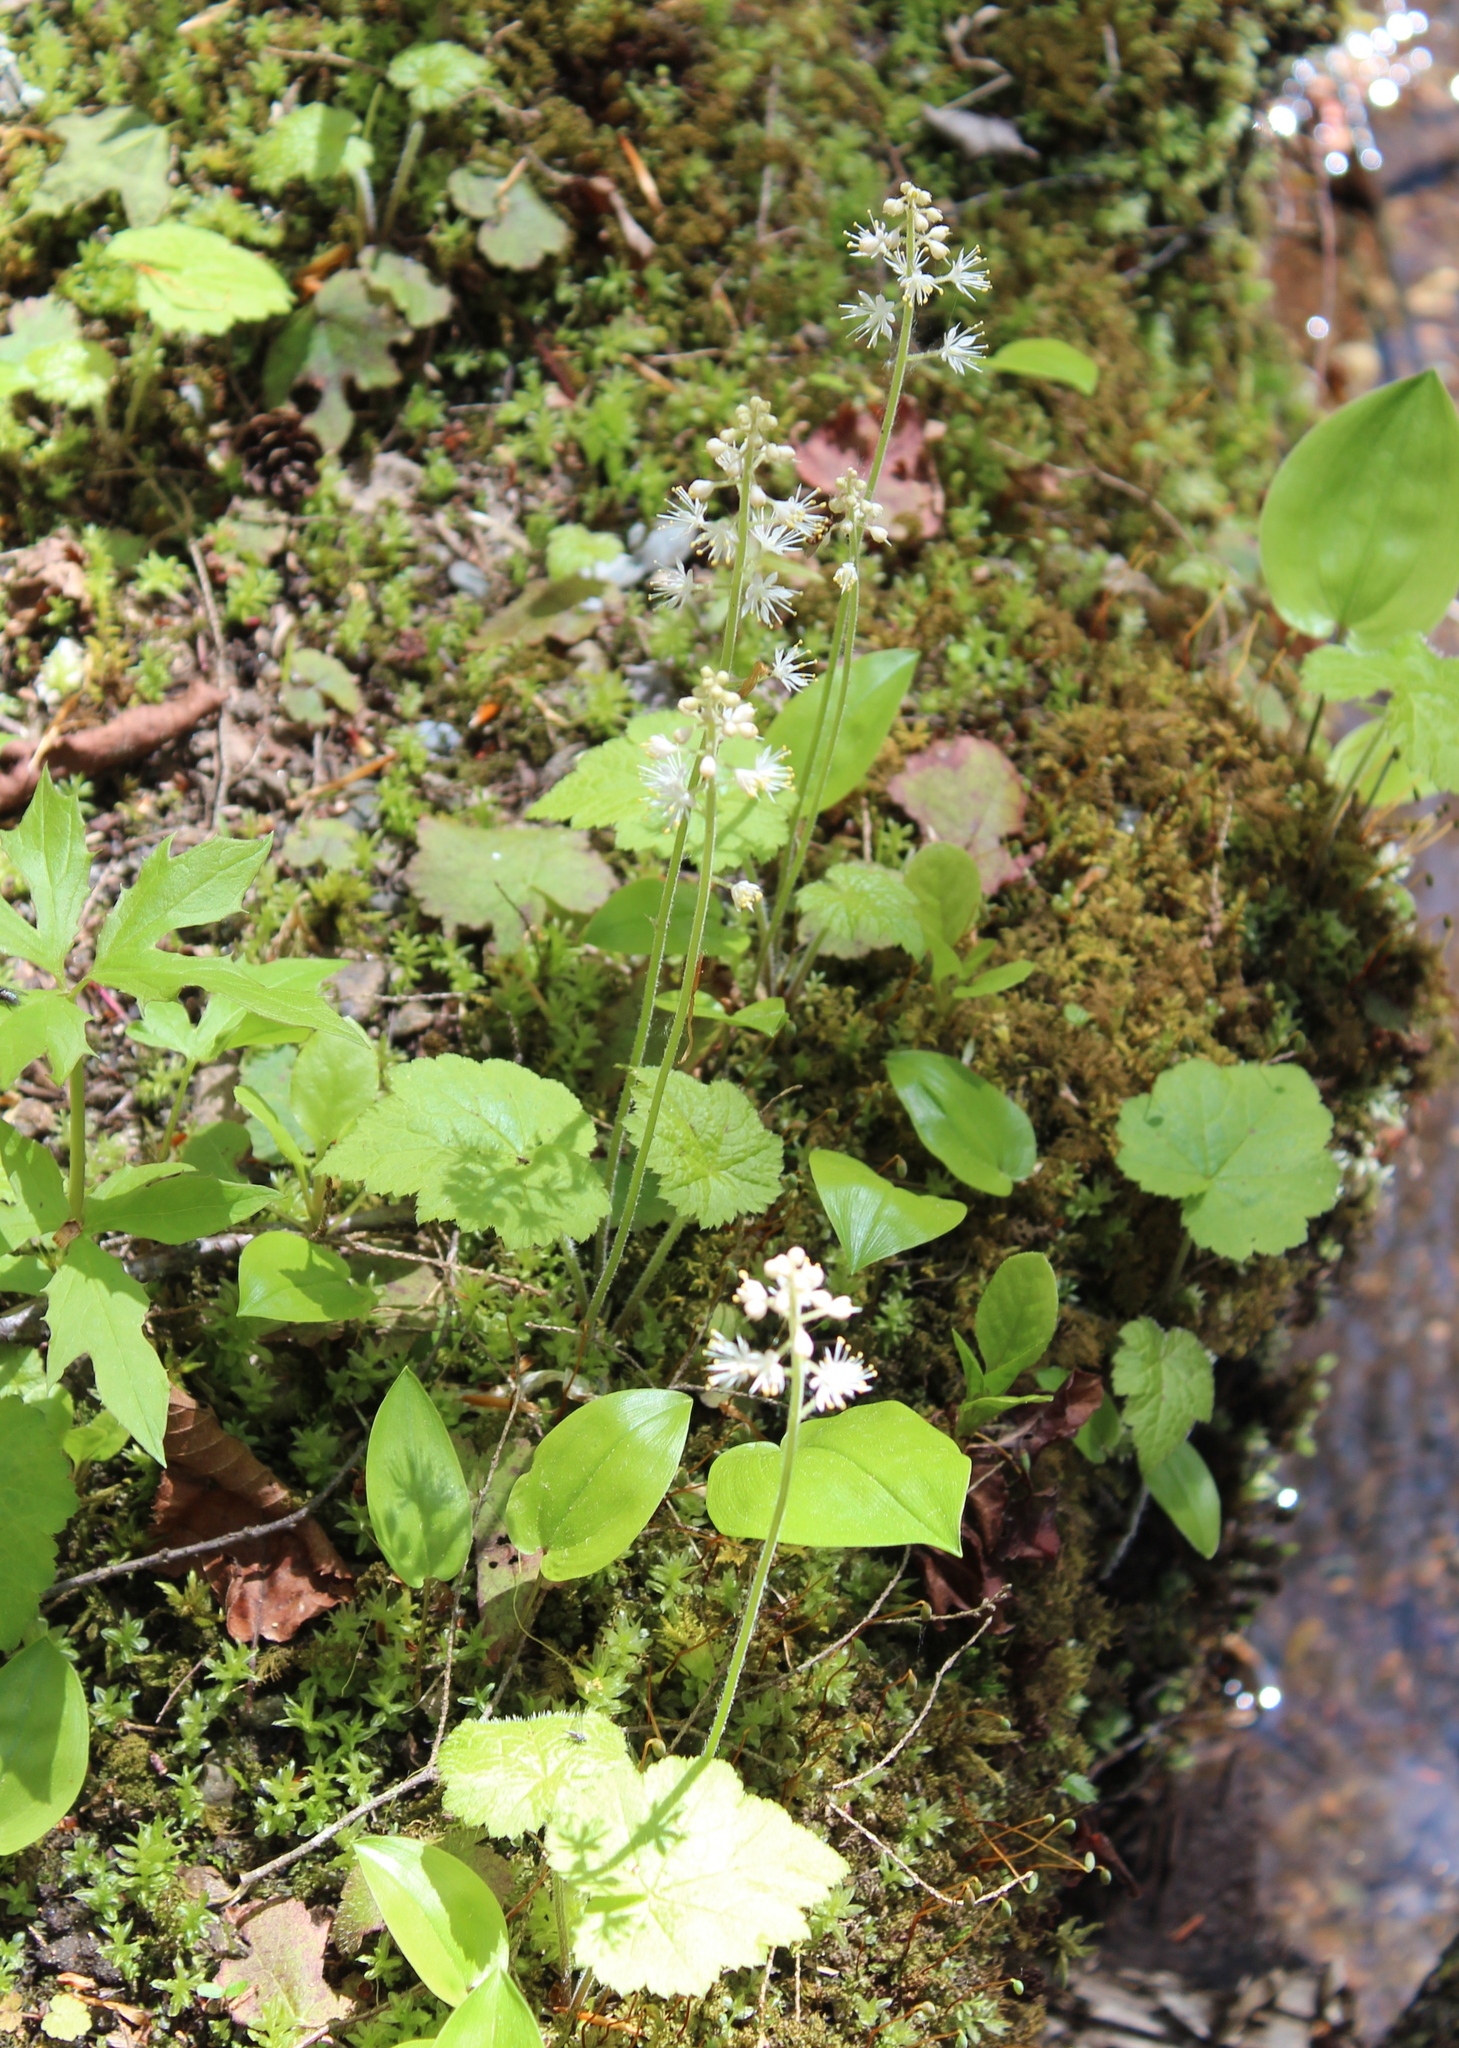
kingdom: Plantae
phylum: Tracheophyta
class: Magnoliopsida
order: Saxifragales
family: Saxifragaceae
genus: Tiarella
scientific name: Tiarella stolonifera
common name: Stoloniferous foamflower
